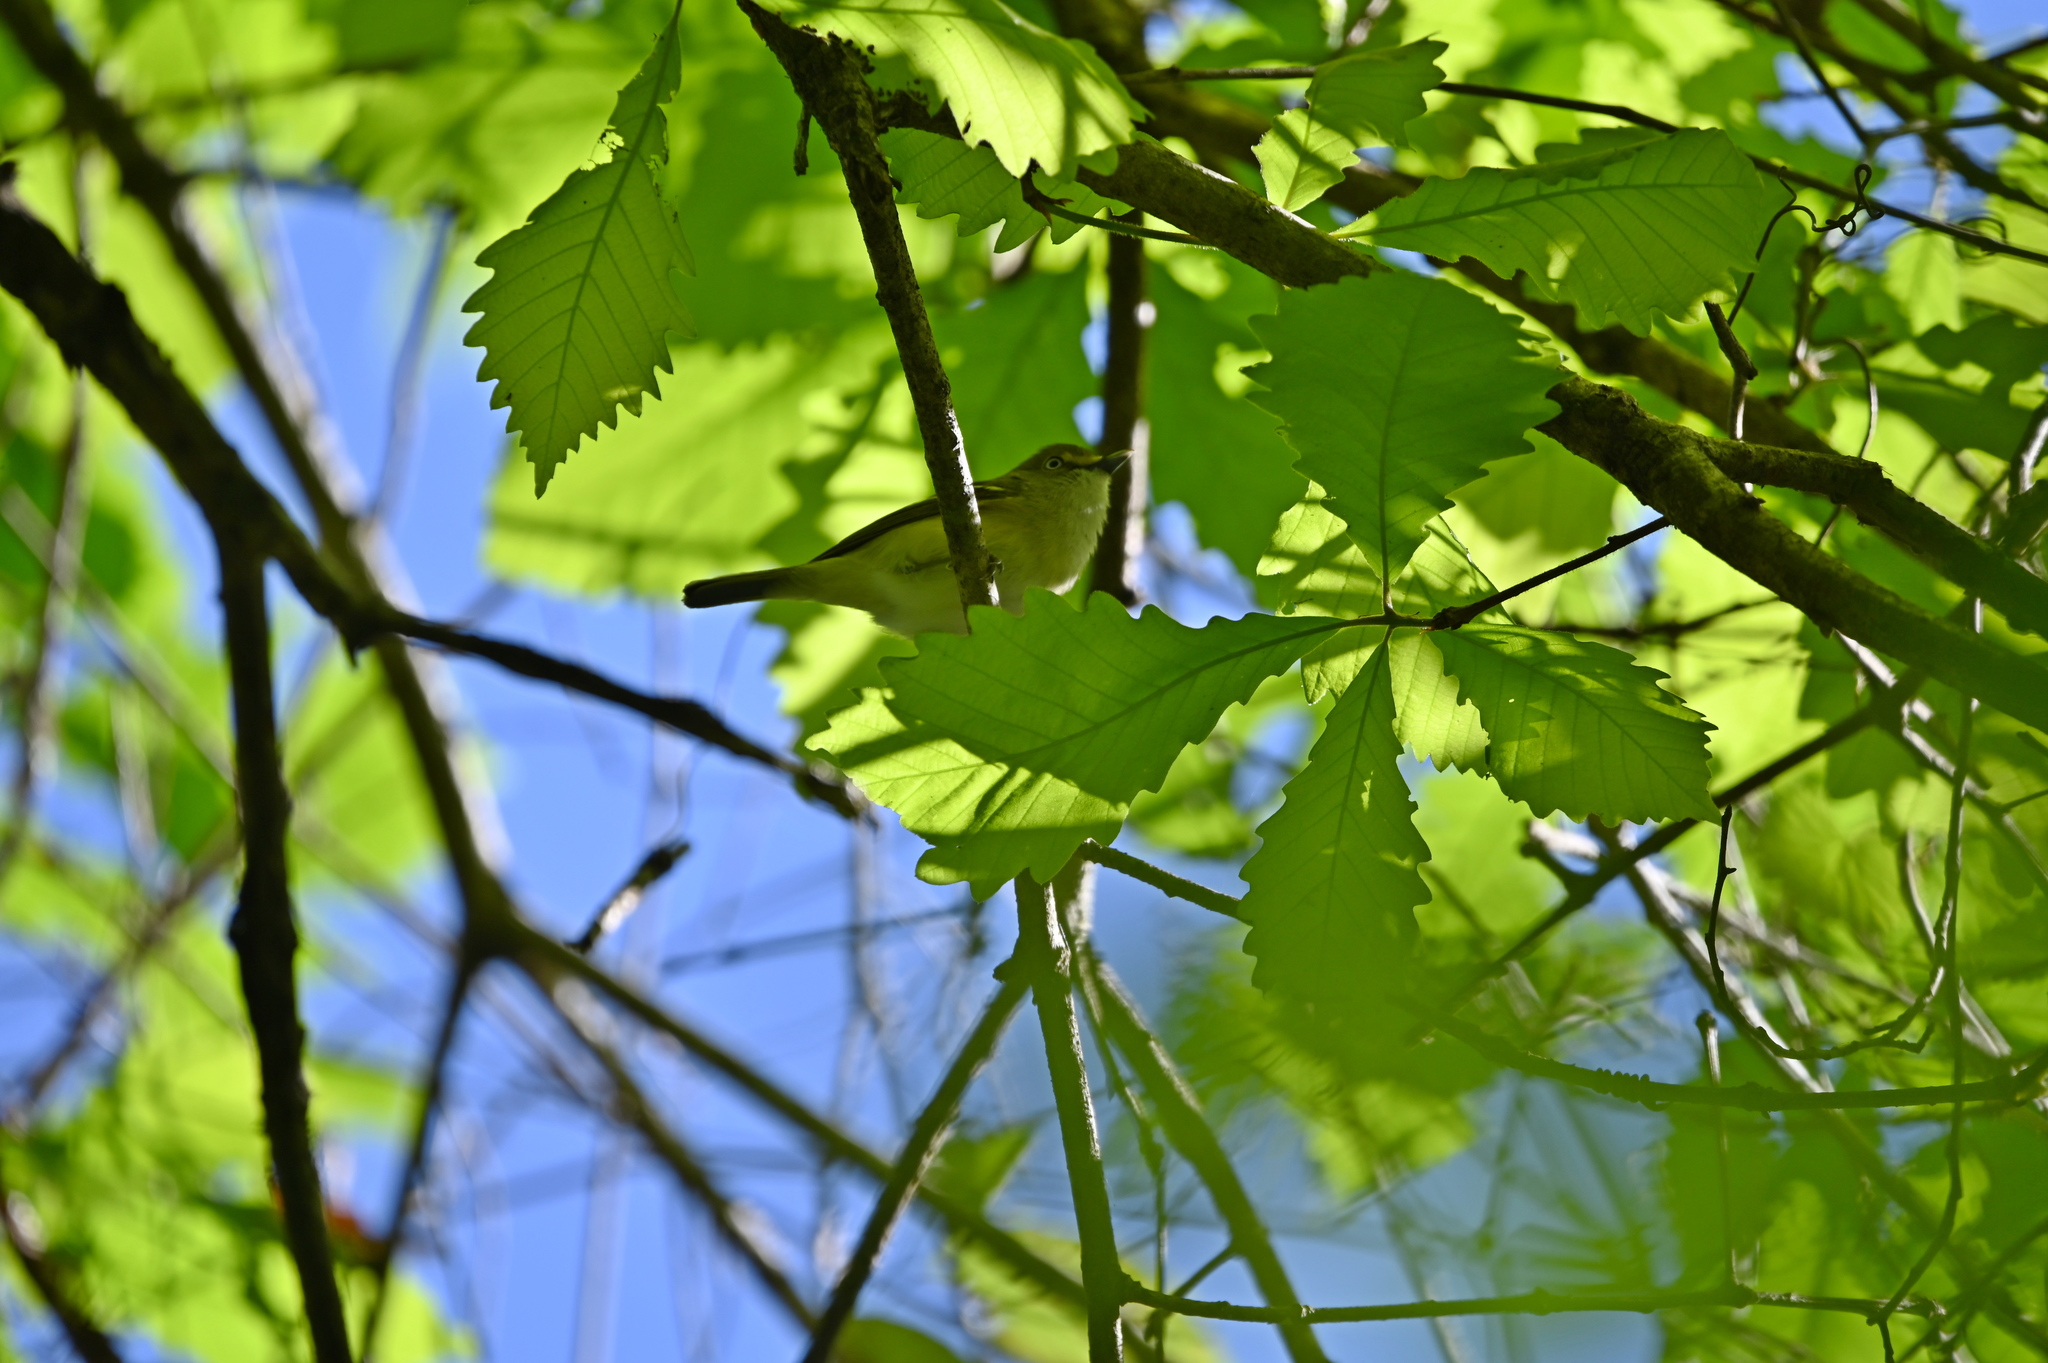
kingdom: Animalia
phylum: Chordata
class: Aves
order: Passeriformes
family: Vireonidae
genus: Vireo
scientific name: Vireo griseus
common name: White-eyed vireo
